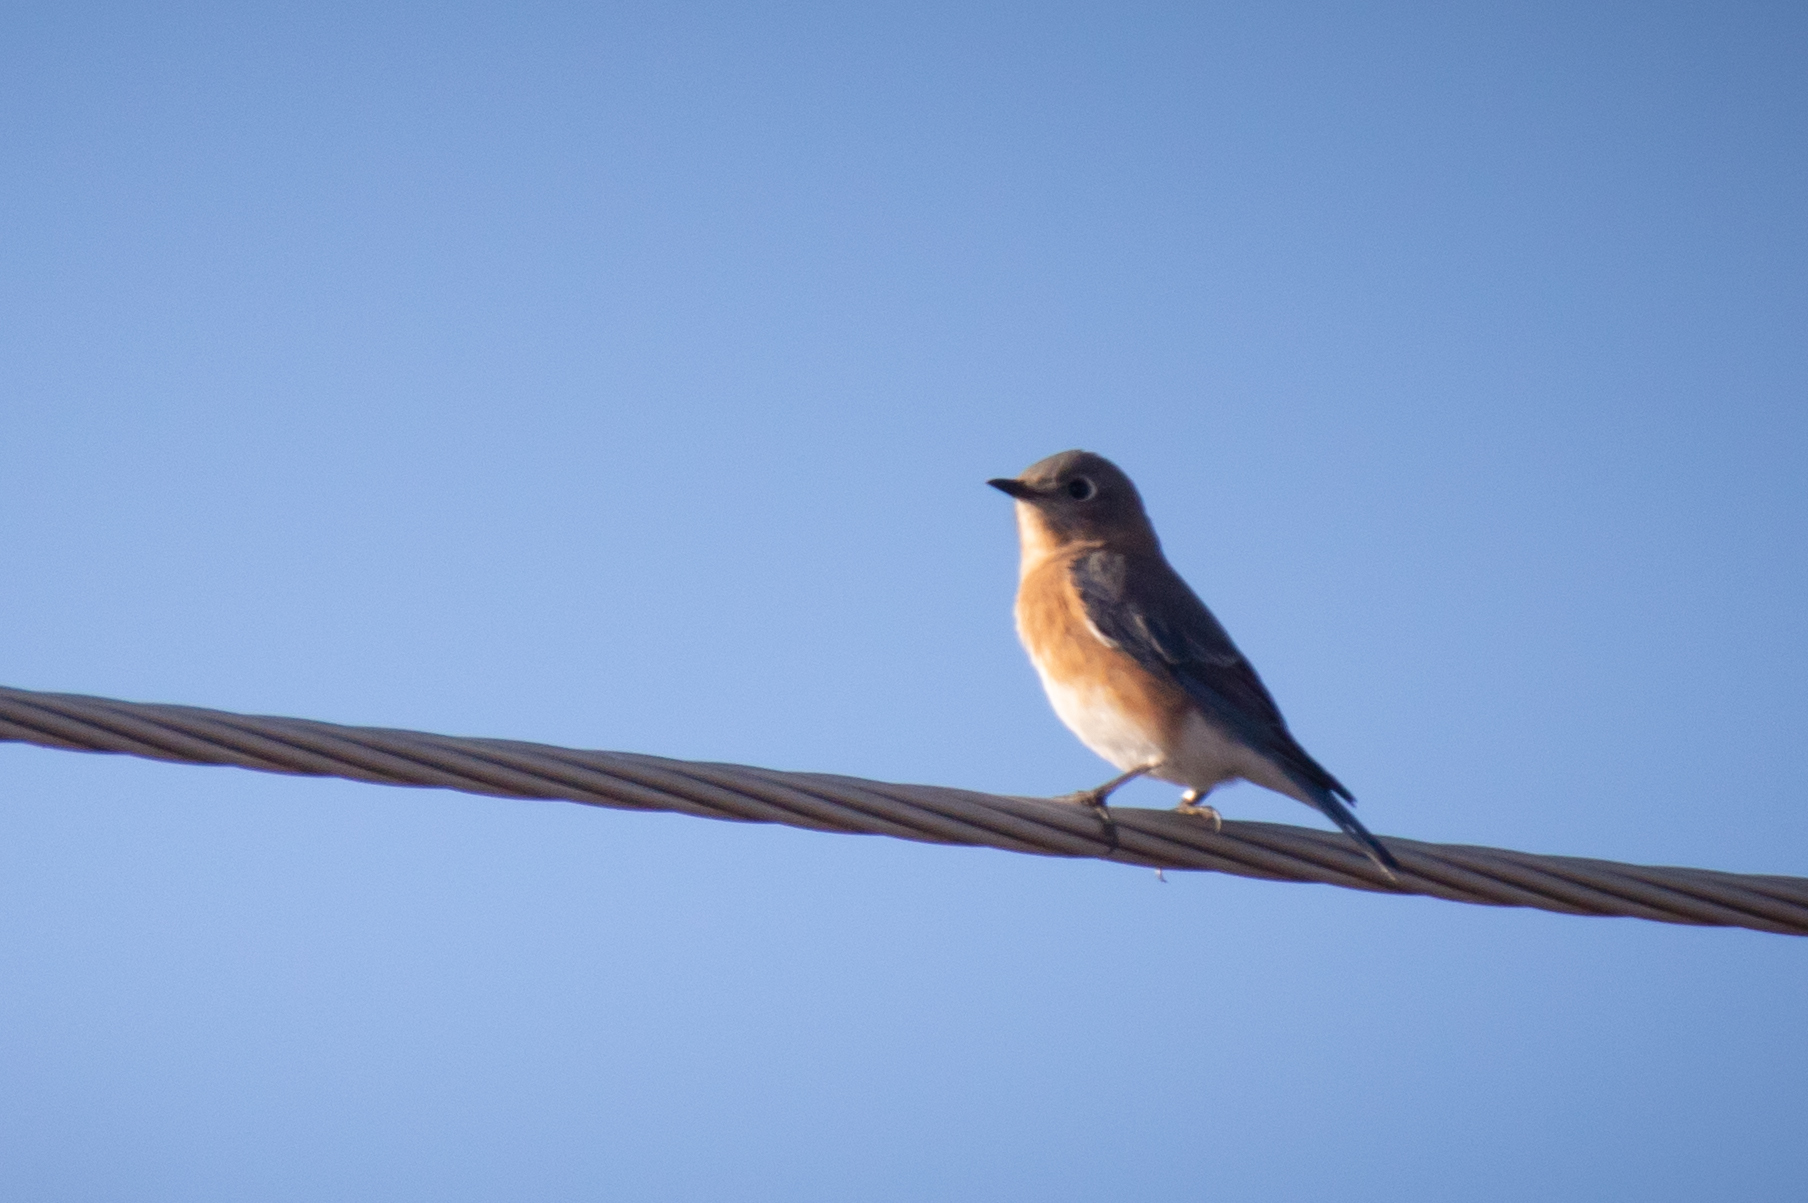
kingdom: Animalia
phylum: Chordata
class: Aves
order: Passeriformes
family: Turdidae
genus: Sialia
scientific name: Sialia sialis
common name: Eastern bluebird
